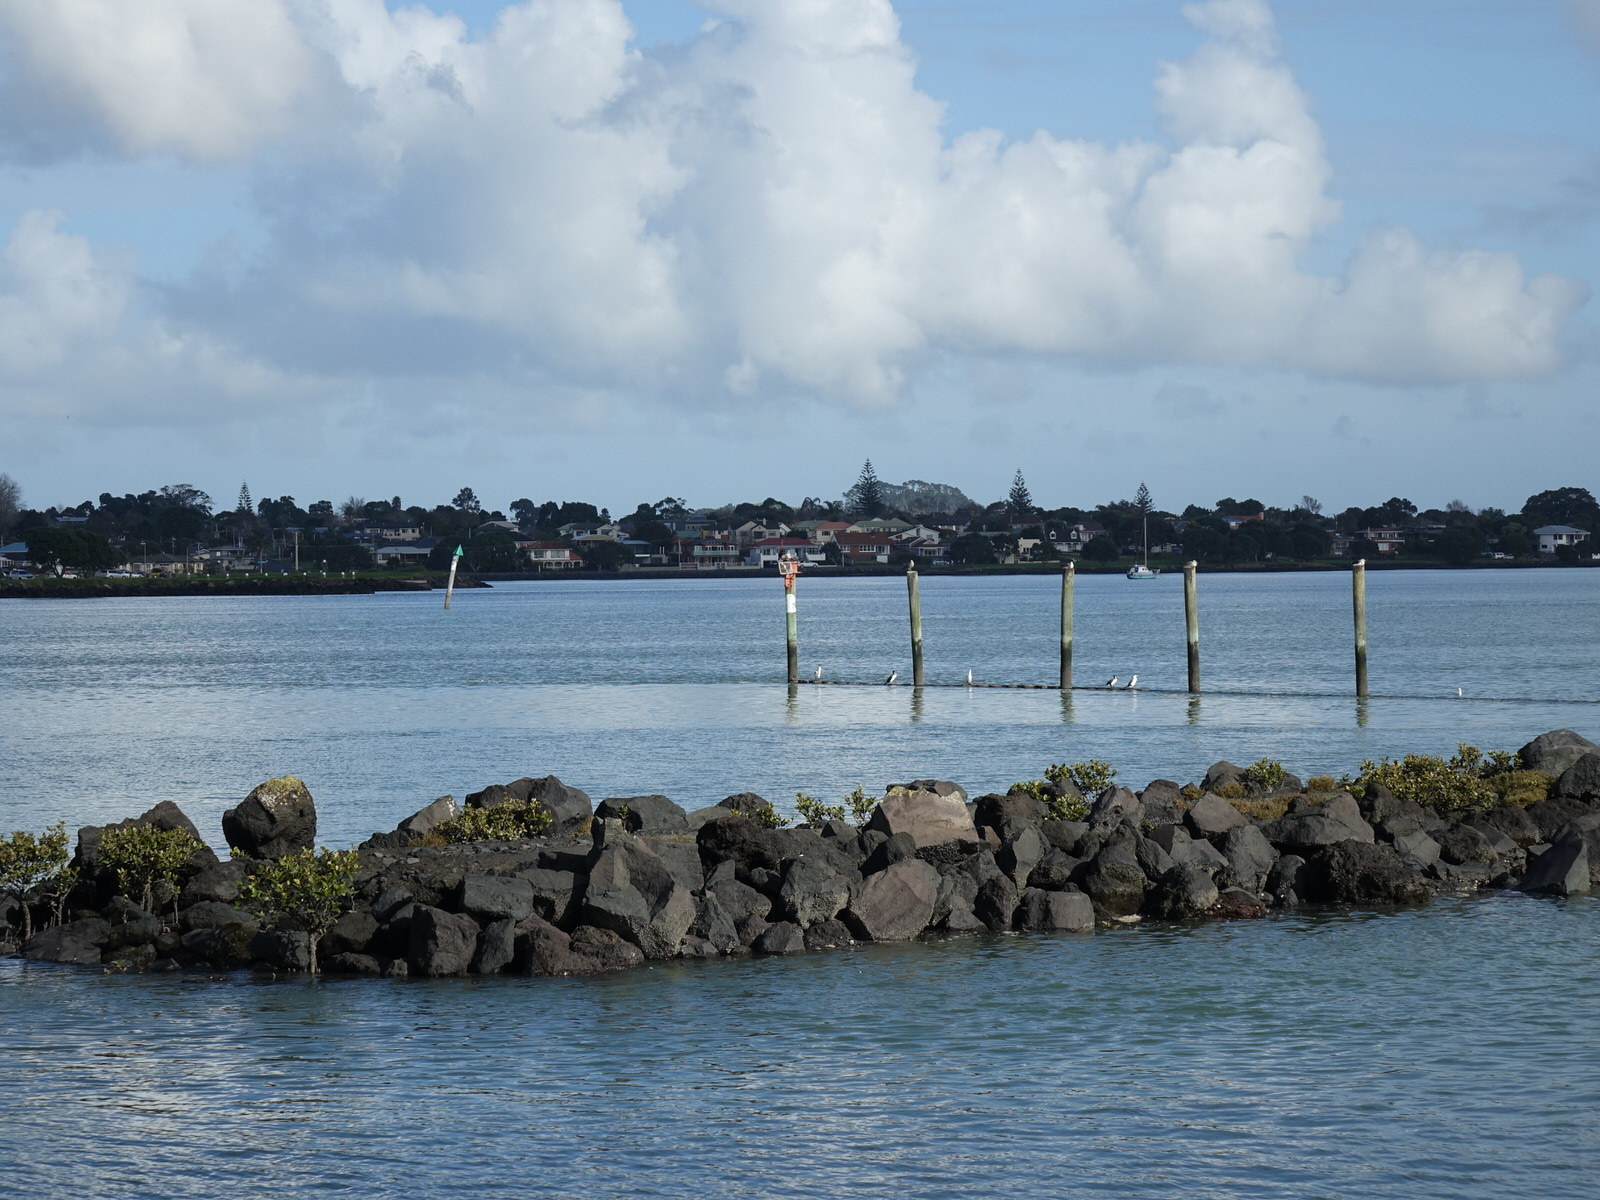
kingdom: Animalia
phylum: Chordata
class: Aves
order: Suliformes
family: Phalacrocoracidae
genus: Phalacrocorax
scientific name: Phalacrocorax varius
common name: Pied cormorant
